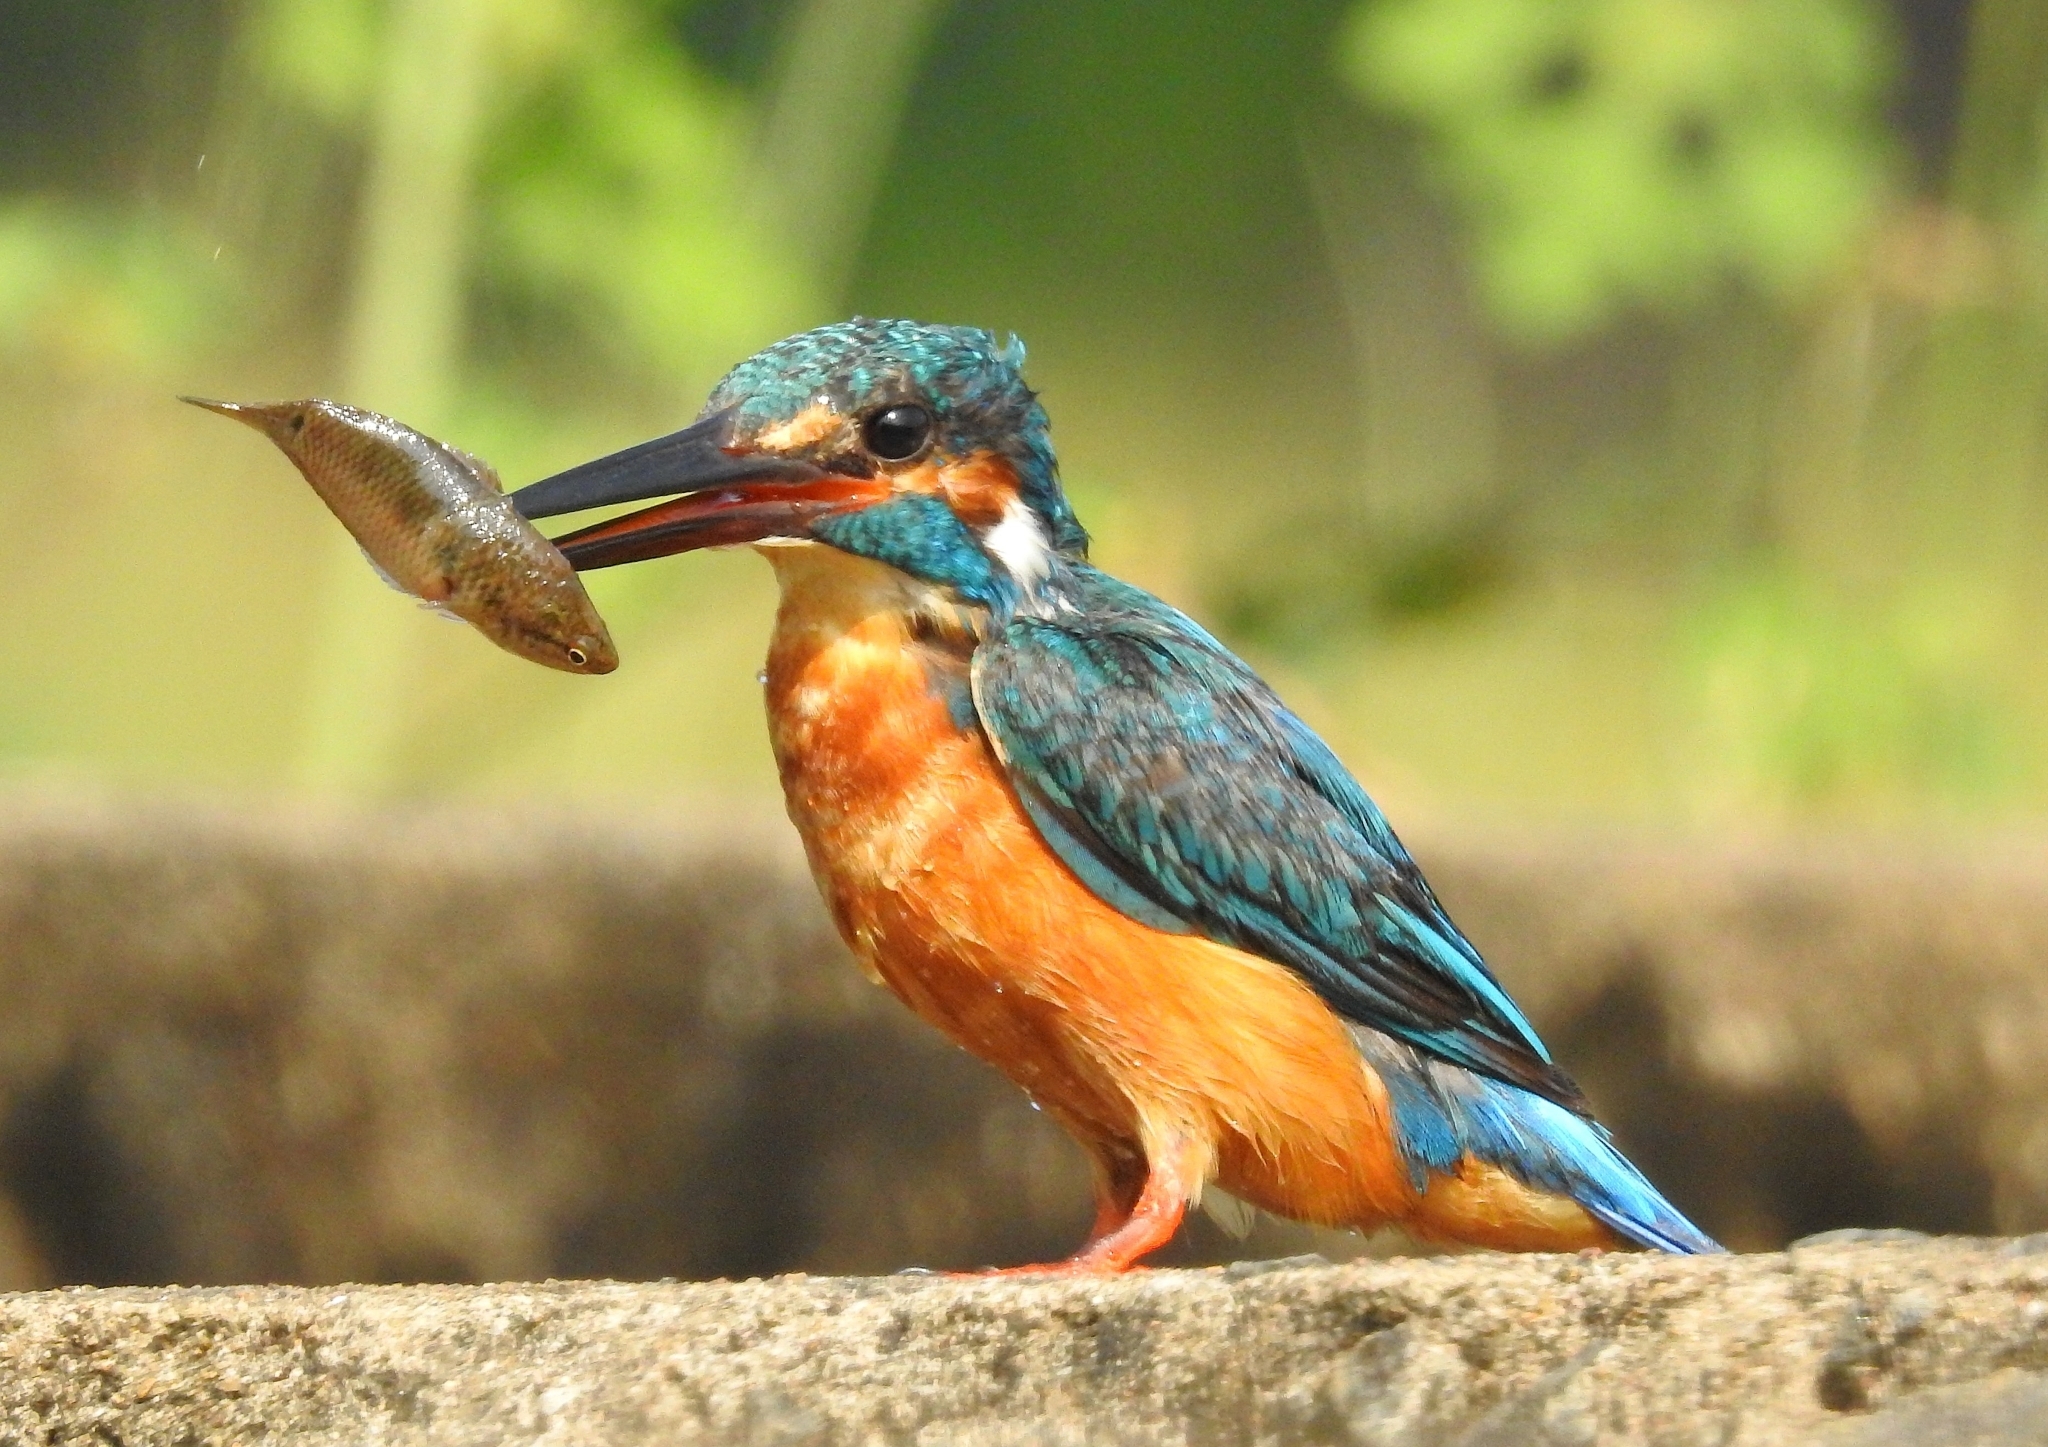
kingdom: Animalia
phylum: Chordata
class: Aves
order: Coraciiformes
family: Alcedinidae
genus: Alcedo
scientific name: Alcedo atthis
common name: Common kingfisher
